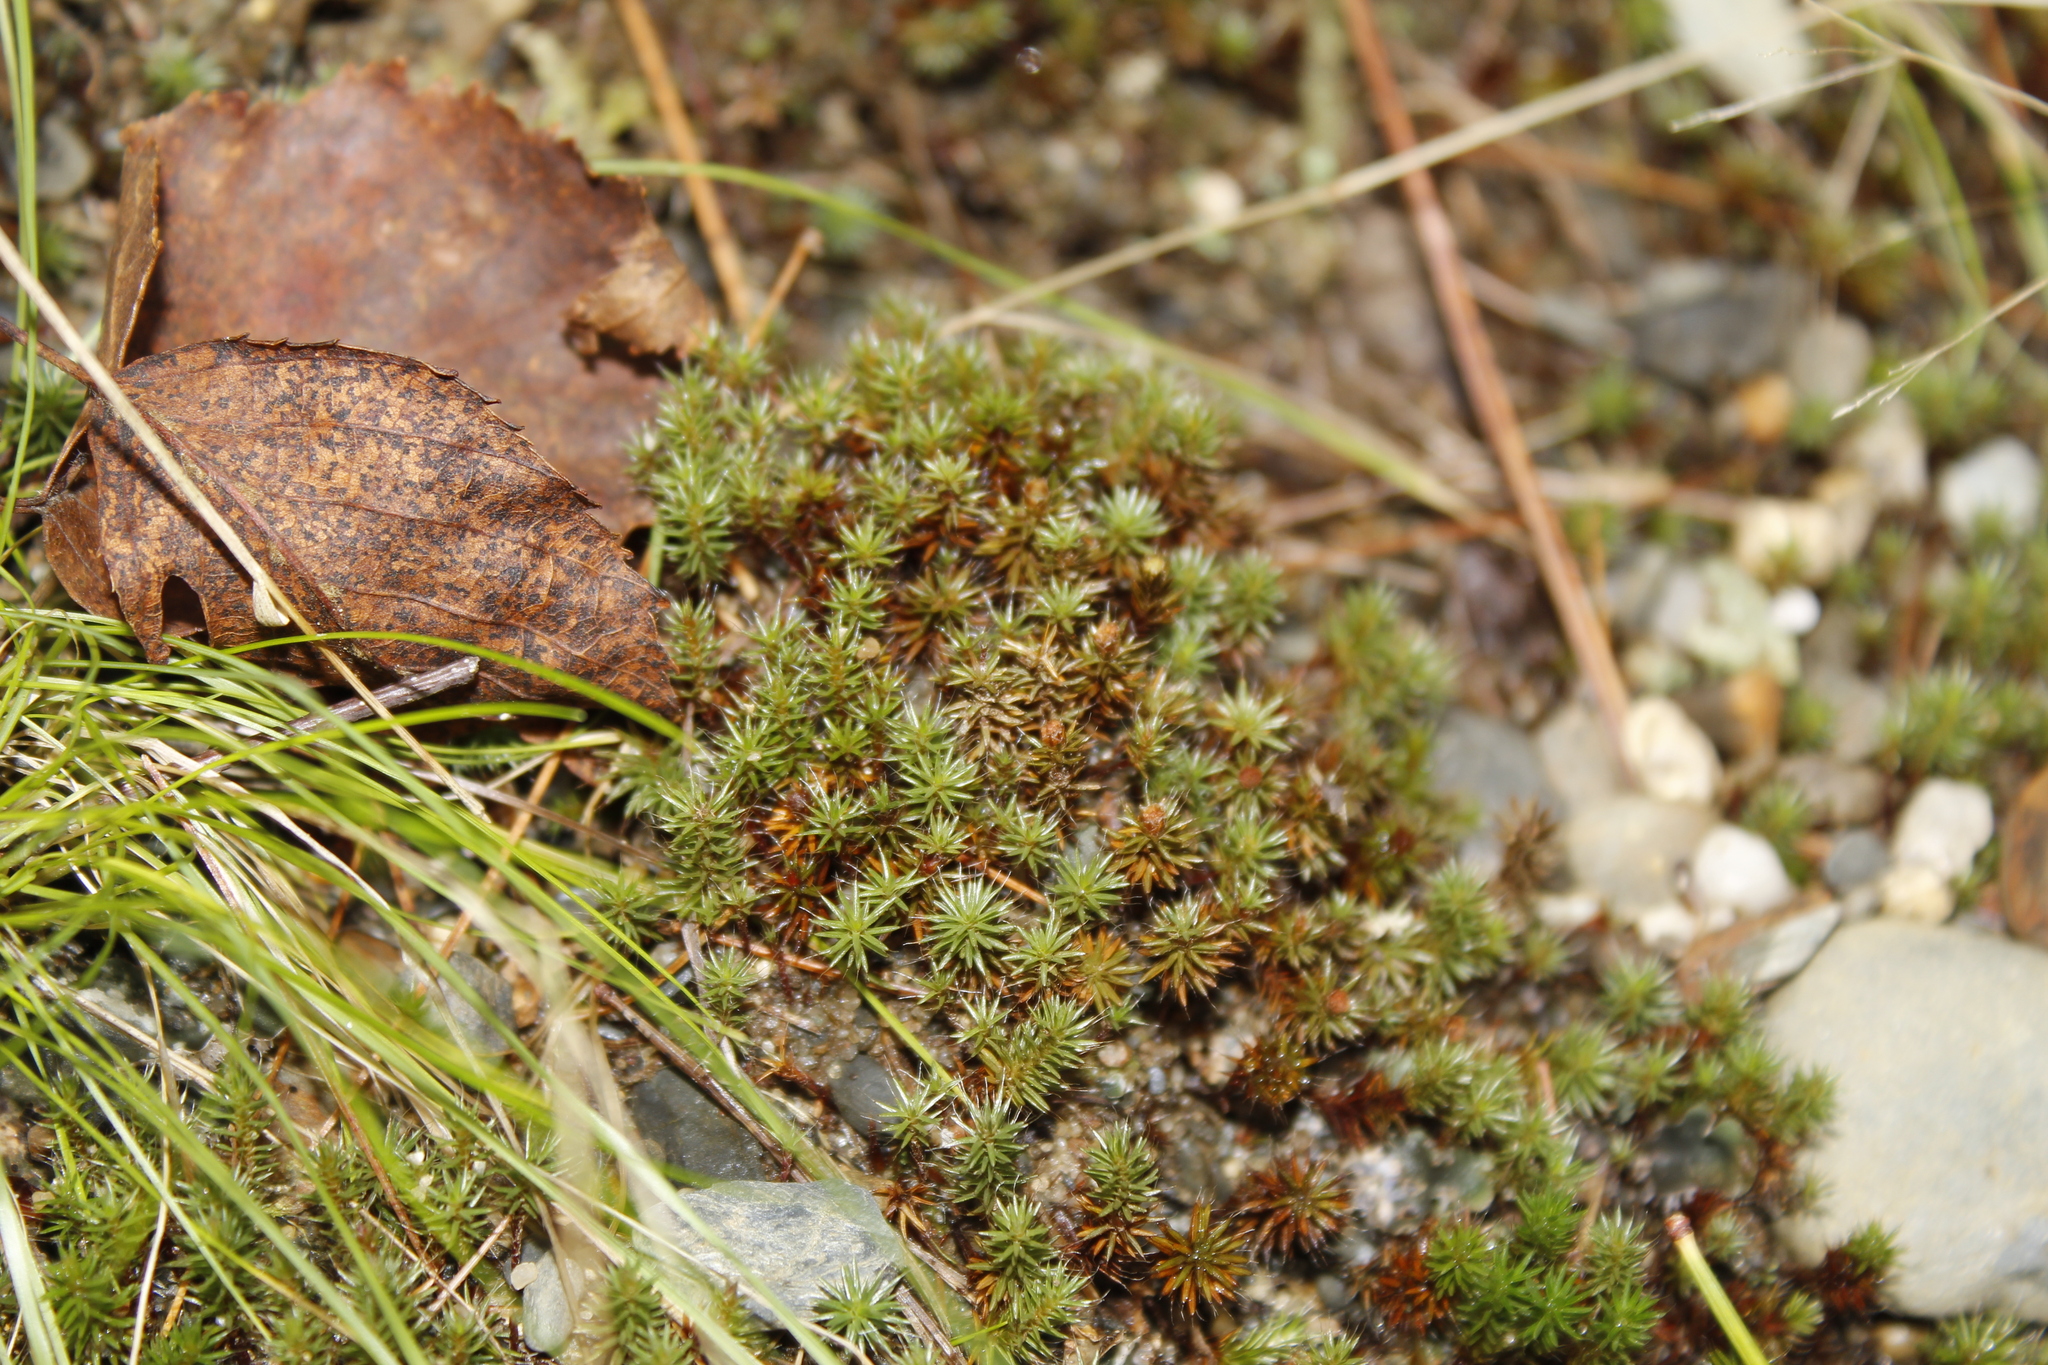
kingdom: Plantae
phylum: Bryophyta
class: Polytrichopsida
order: Polytrichales
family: Polytrichaceae
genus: Polytrichum
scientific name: Polytrichum piliferum
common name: Bristly haircap
